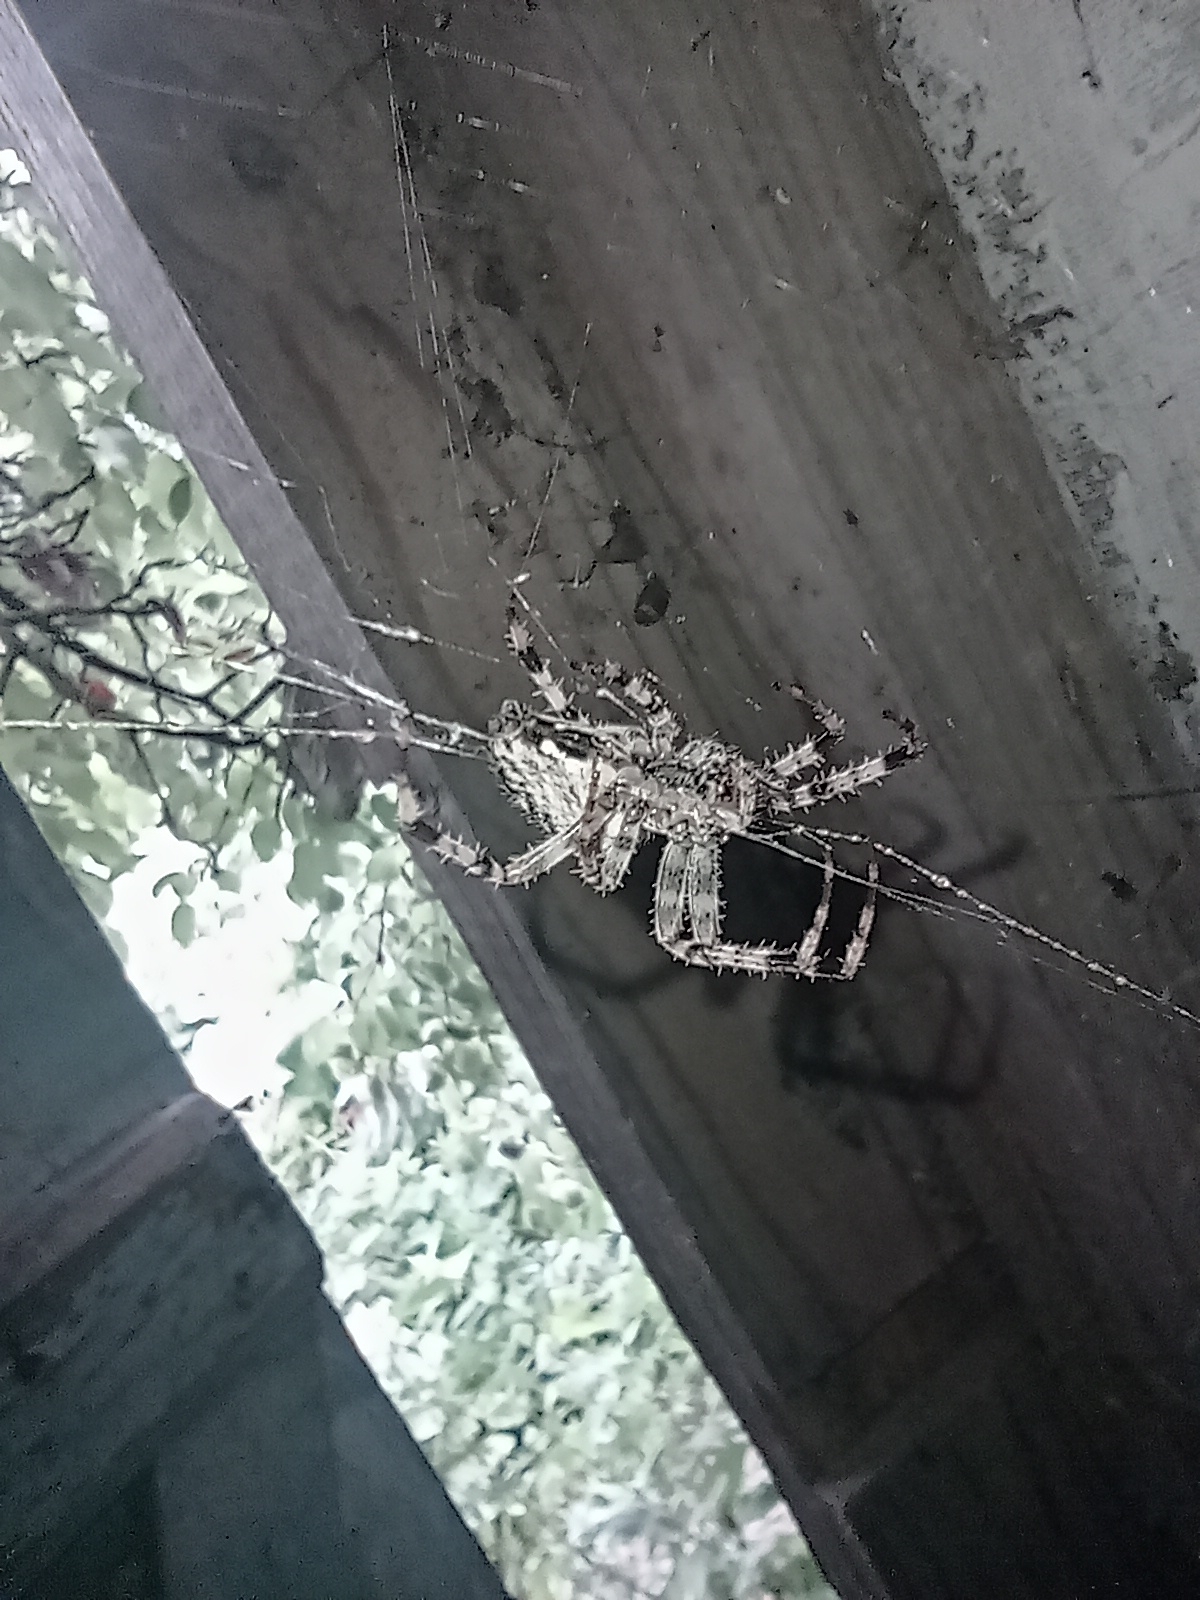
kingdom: Animalia
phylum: Arthropoda
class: Arachnida
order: Araneae
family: Araneidae
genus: Araneus
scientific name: Araneus diadematus
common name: Cross orbweaver
